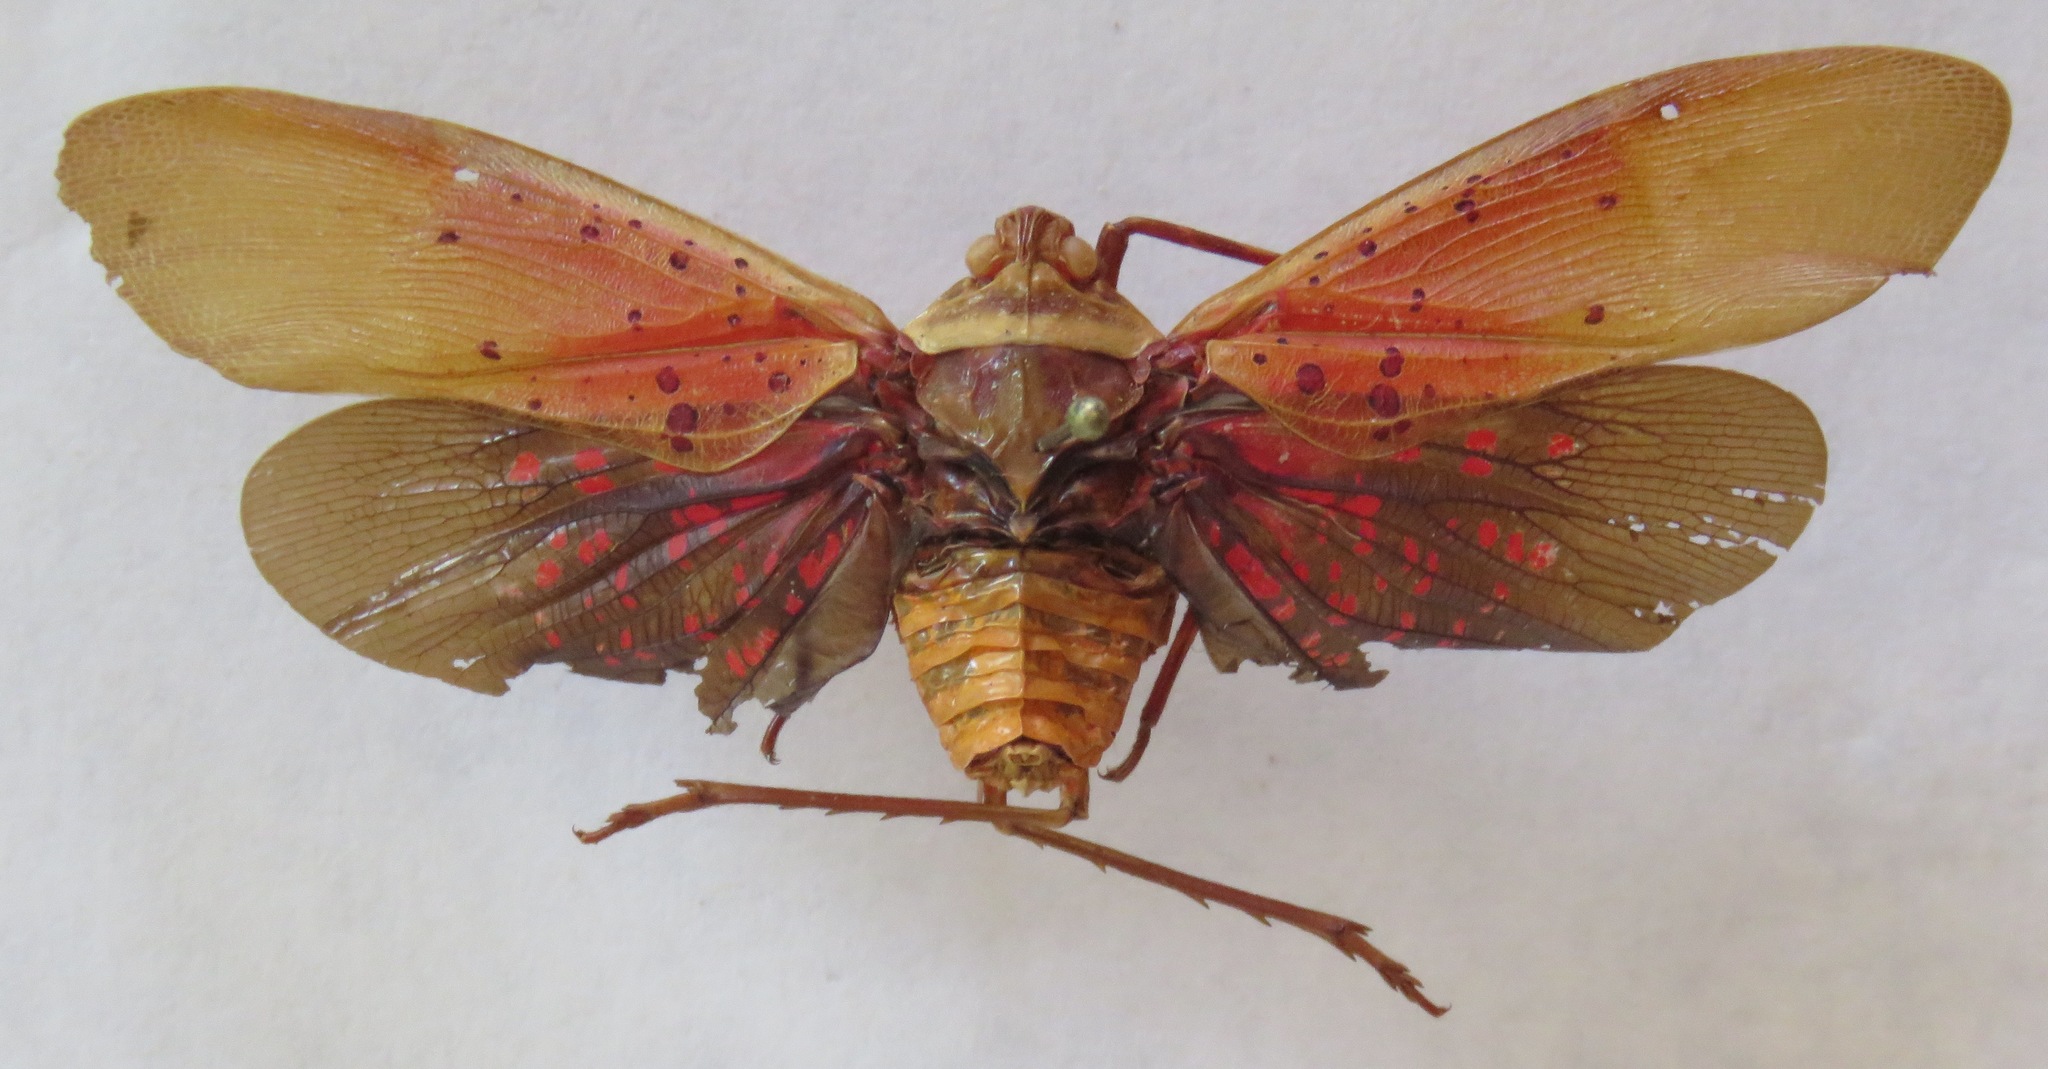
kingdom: Animalia
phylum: Arthropoda
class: Insecta
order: Hemiptera
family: Fulgoridae
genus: Copidocephala
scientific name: Copidocephala guttata
